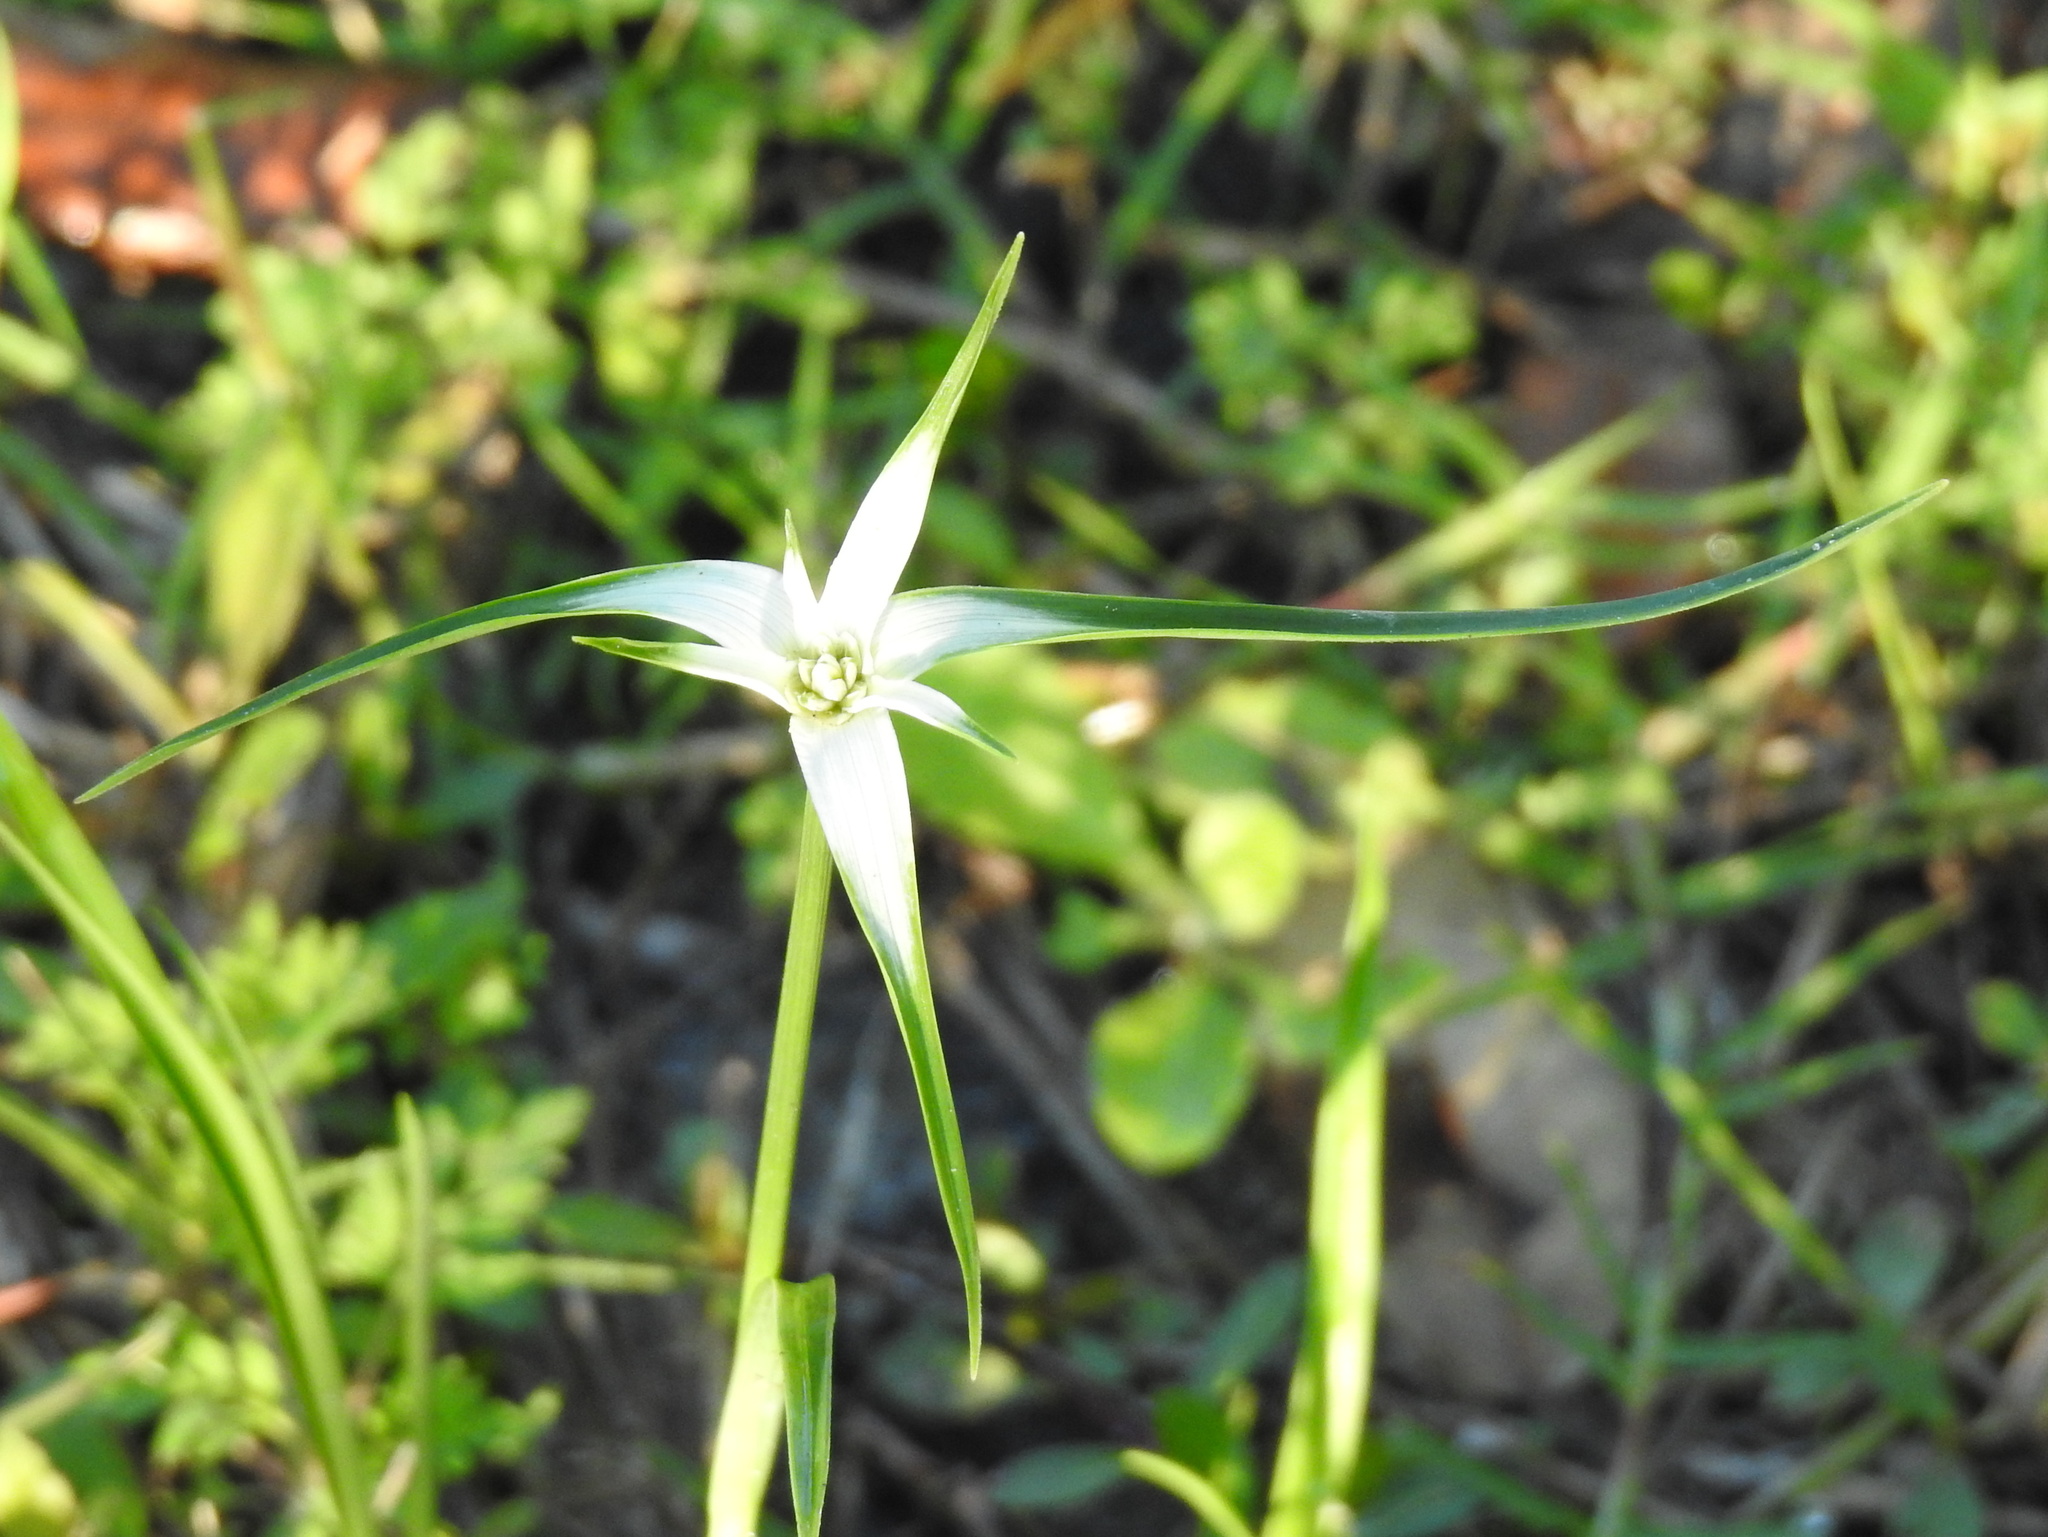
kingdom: Plantae
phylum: Tracheophyta
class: Liliopsida
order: Poales
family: Cyperaceae
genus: Rhynchospora
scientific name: Rhynchospora colorata
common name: Star sedge
